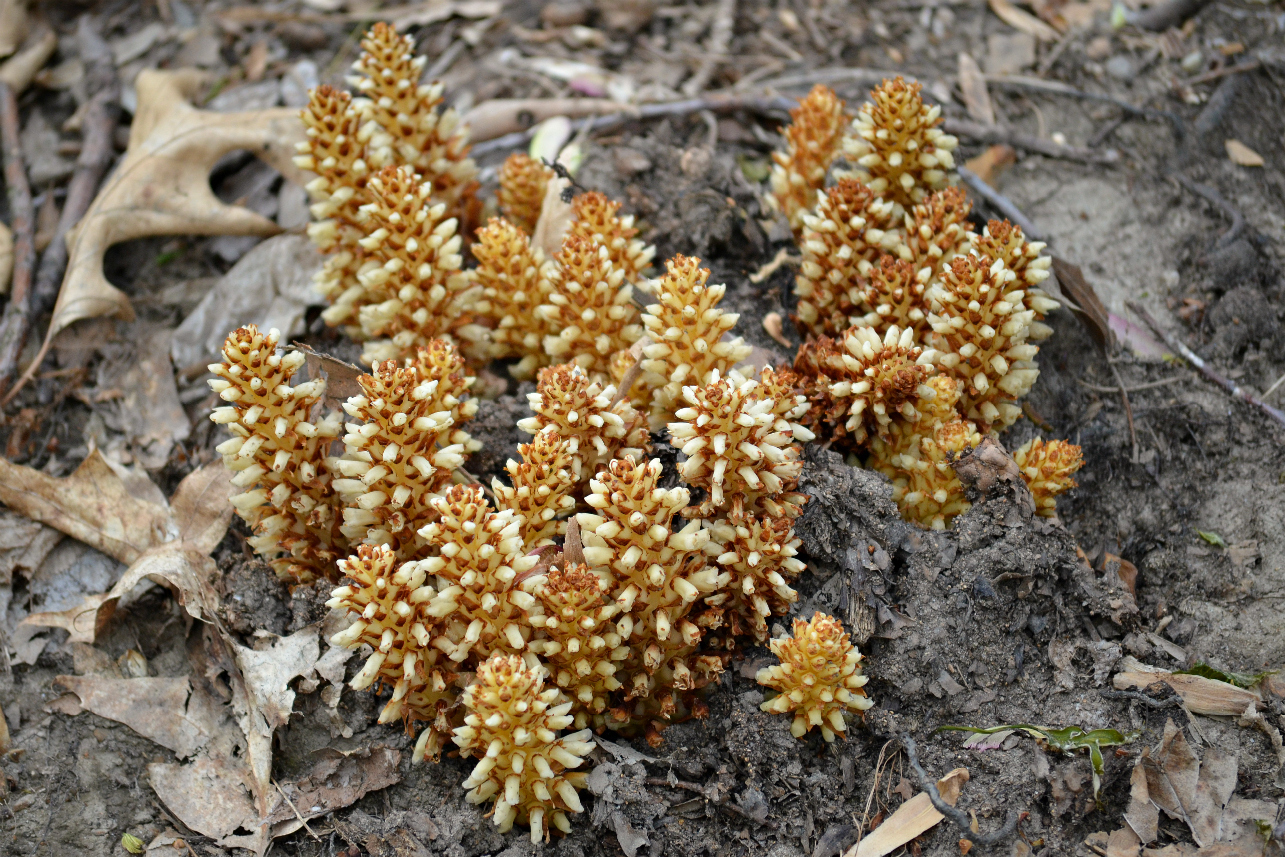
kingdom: Plantae
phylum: Tracheophyta
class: Magnoliopsida
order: Lamiales
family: Orobanchaceae
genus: Conopholis
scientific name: Conopholis americana
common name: American cancer-root
